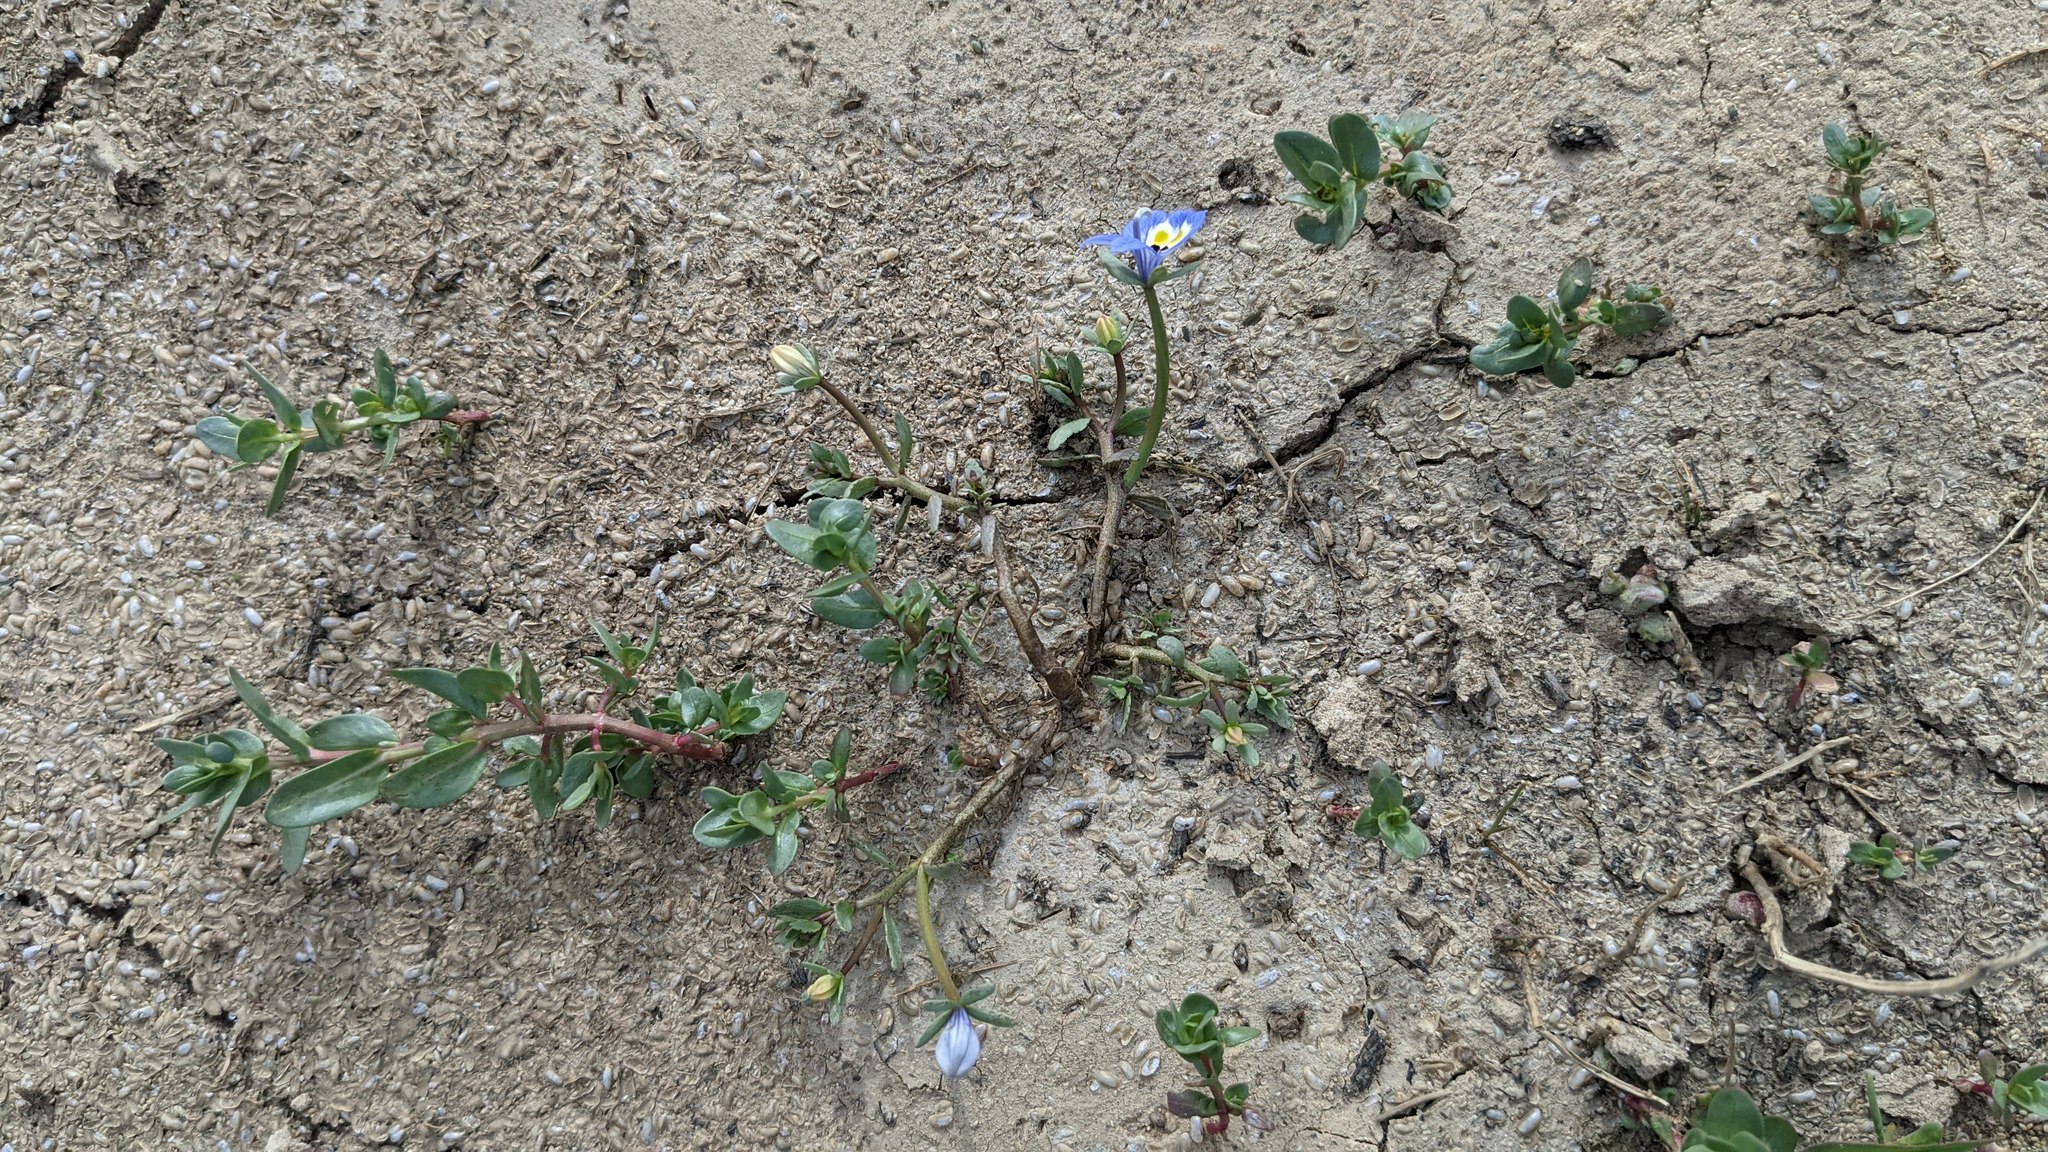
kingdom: Plantae
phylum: Tracheophyta
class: Magnoliopsida
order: Asterales
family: Campanulaceae
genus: Downingia
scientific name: Downingia insignis
